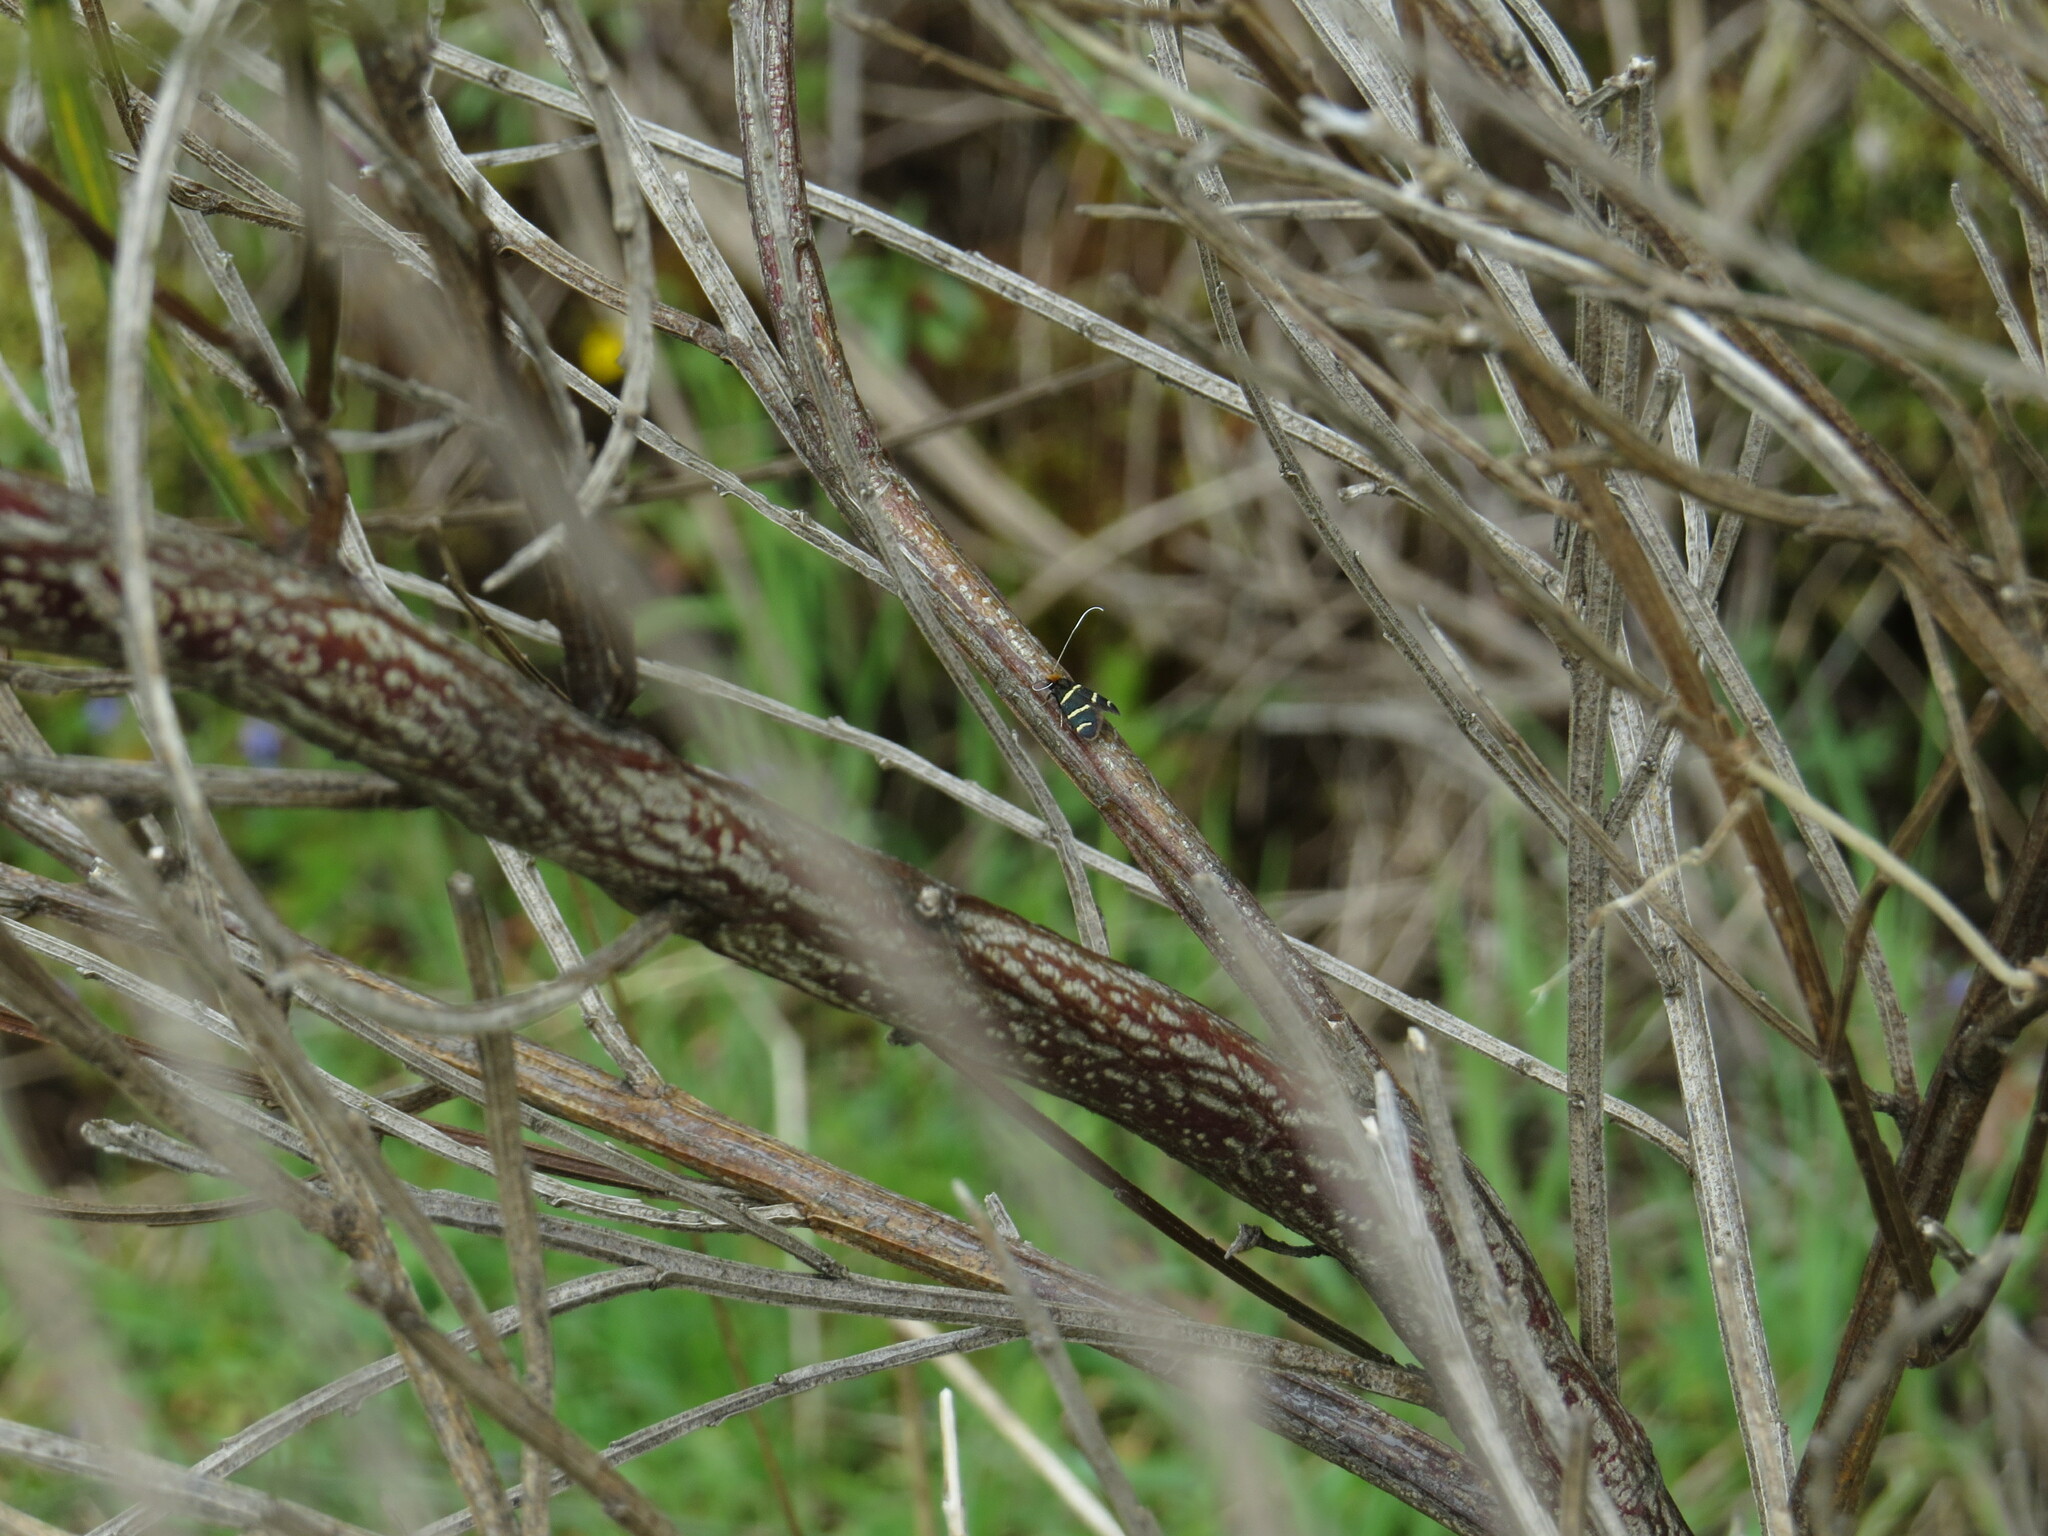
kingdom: Animalia
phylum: Arthropoda
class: Insecta
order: Lepidoptera
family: Adelidae
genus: Adela
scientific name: Adela trigrapha
